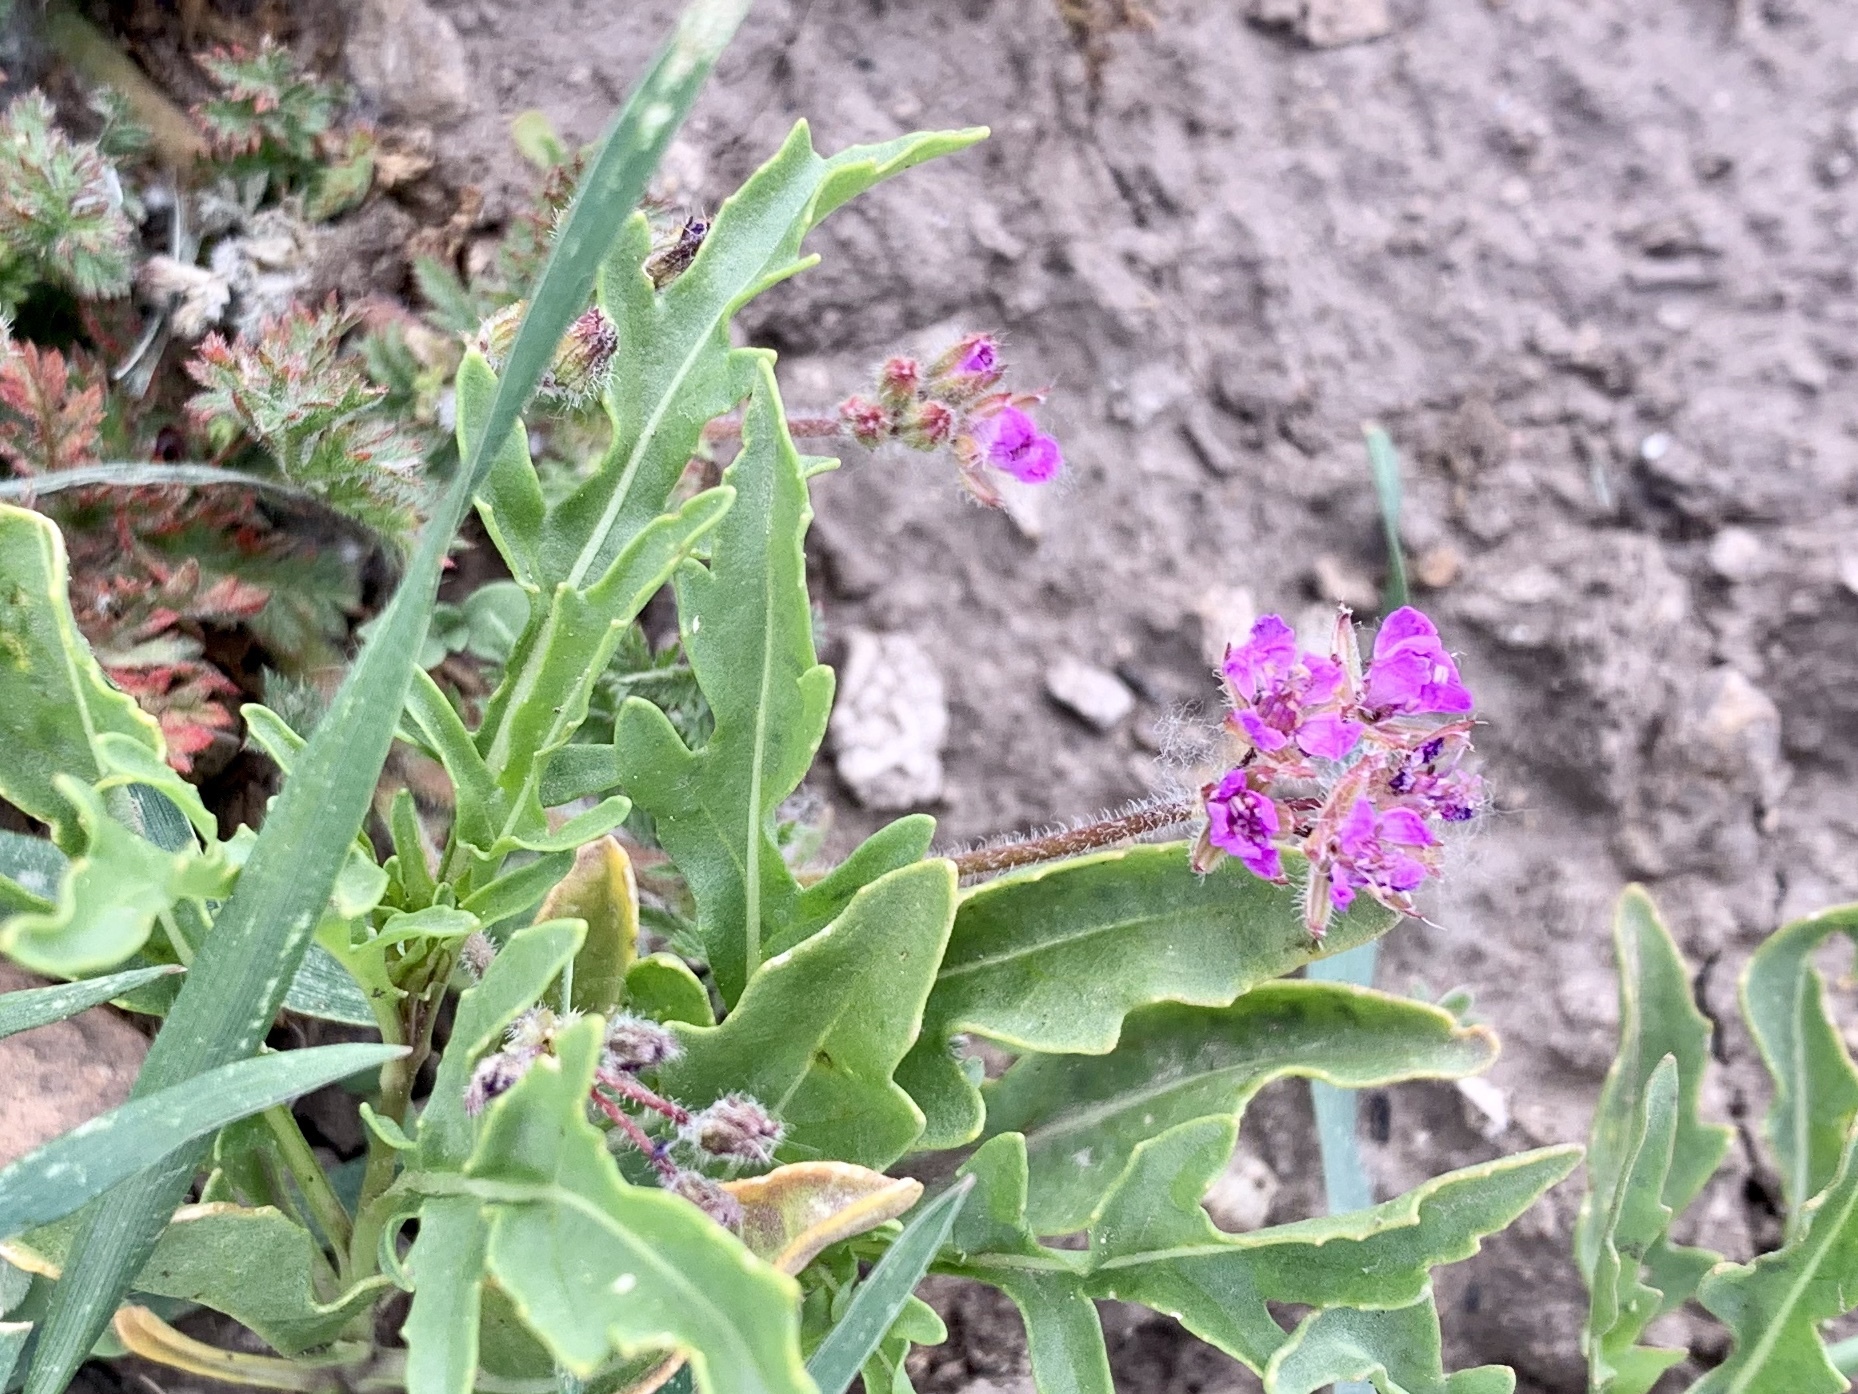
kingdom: Plantae
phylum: Tracheophyta
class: Magnoliopsida
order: Geraniales
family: Geraniaceae
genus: Erodium
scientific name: Erodium cicutarium
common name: Common stork's-bill
